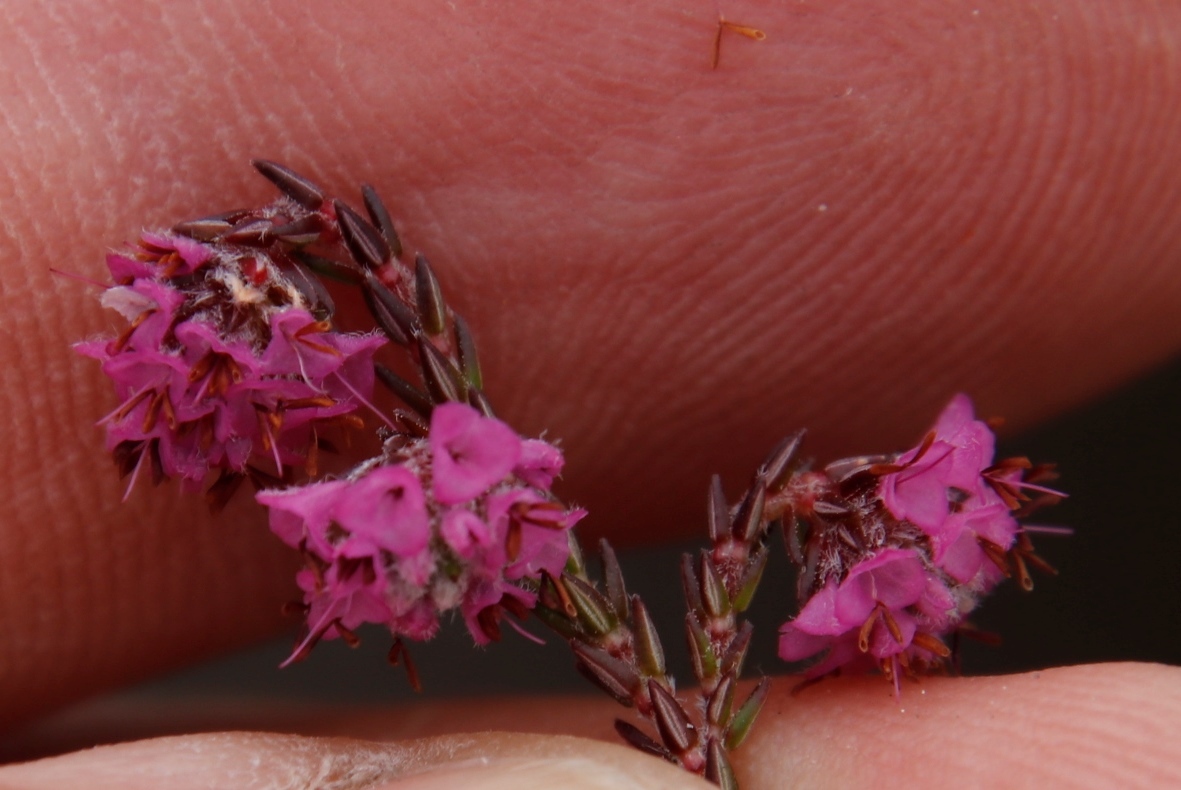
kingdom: Plantae
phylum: Tracheophyta
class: Magnoliopsida
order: Ericales
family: Ericaceae
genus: Erica
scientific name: Erica globiceps
